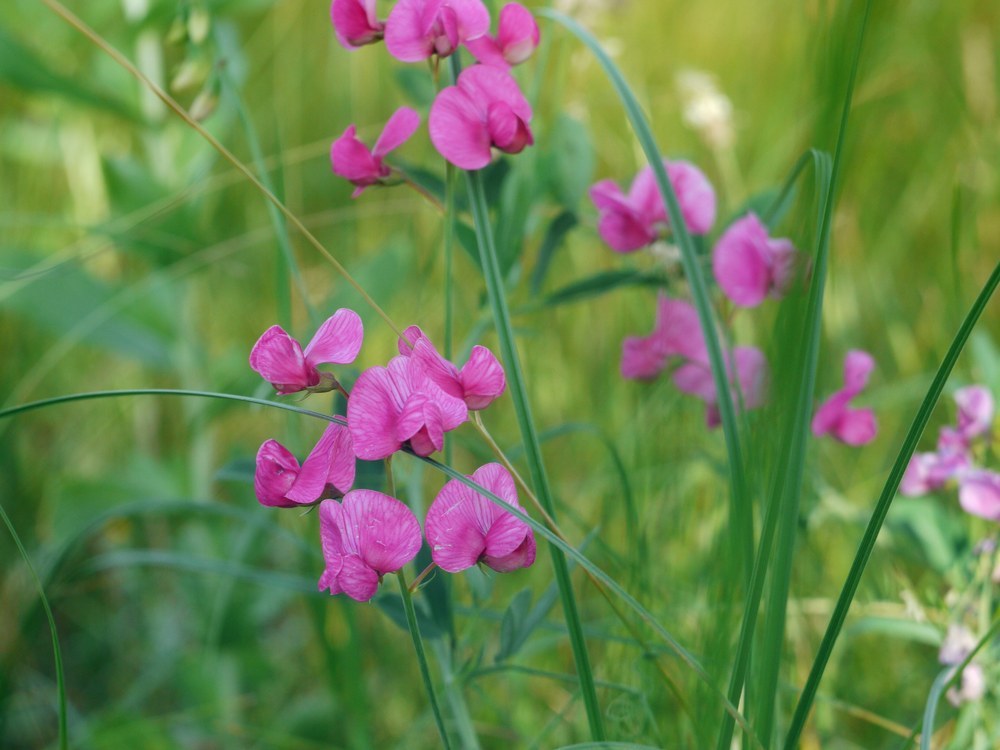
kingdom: Plantae
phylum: Tracheophyta
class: Magnoliopsida
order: Fabales
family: Fabaceae
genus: Lathyrus
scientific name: Lathyrus tuberosus
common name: Tuberous pea
